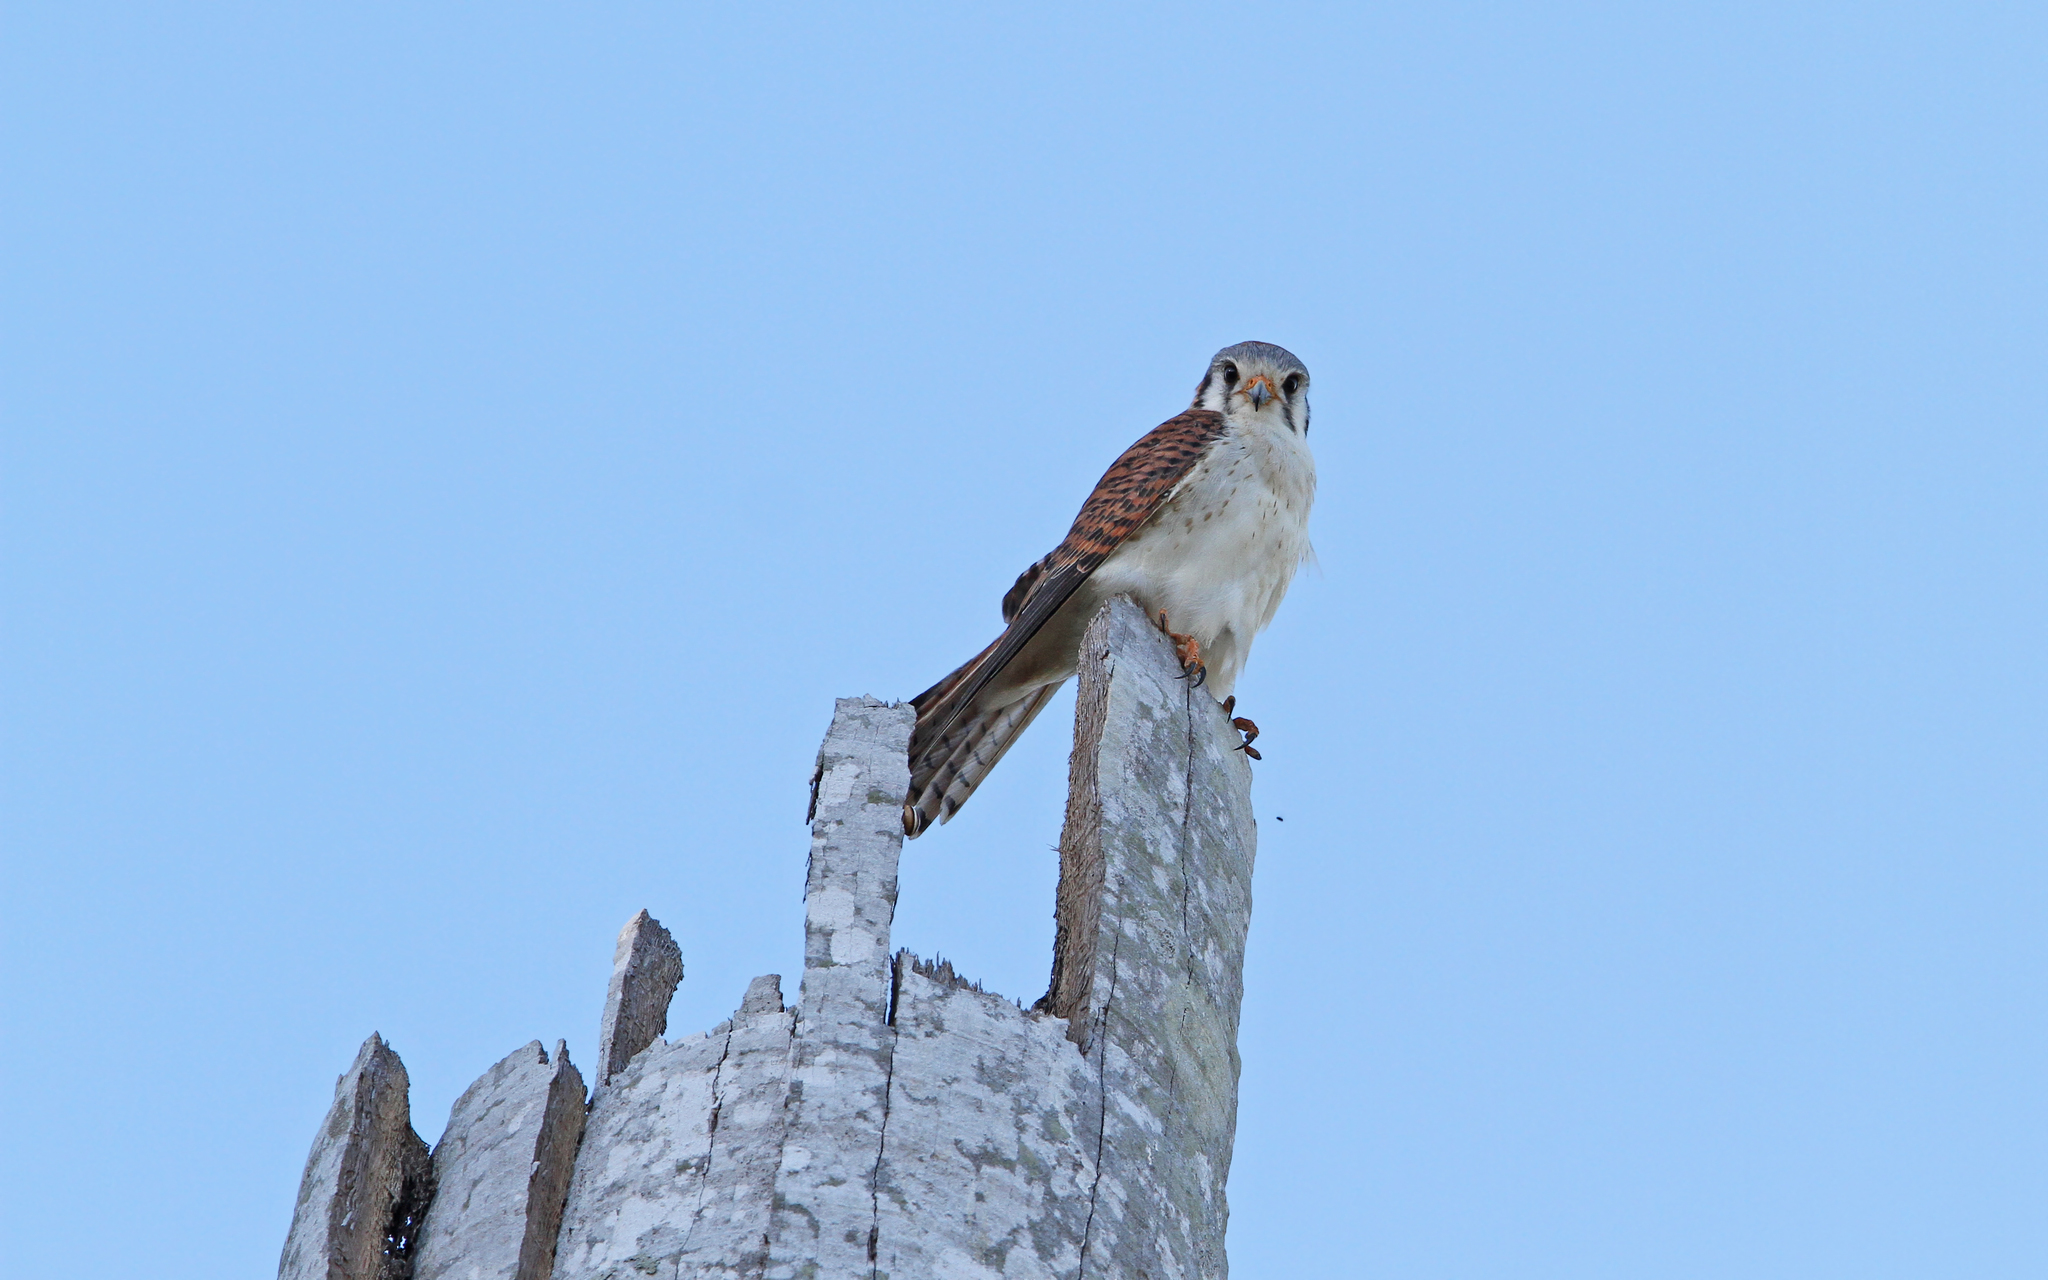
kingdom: Animalia
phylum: Chordata
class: Aves
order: Falconiformes
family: Falconidae
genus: Falco
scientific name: Falco sparverius
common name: American kestrel
